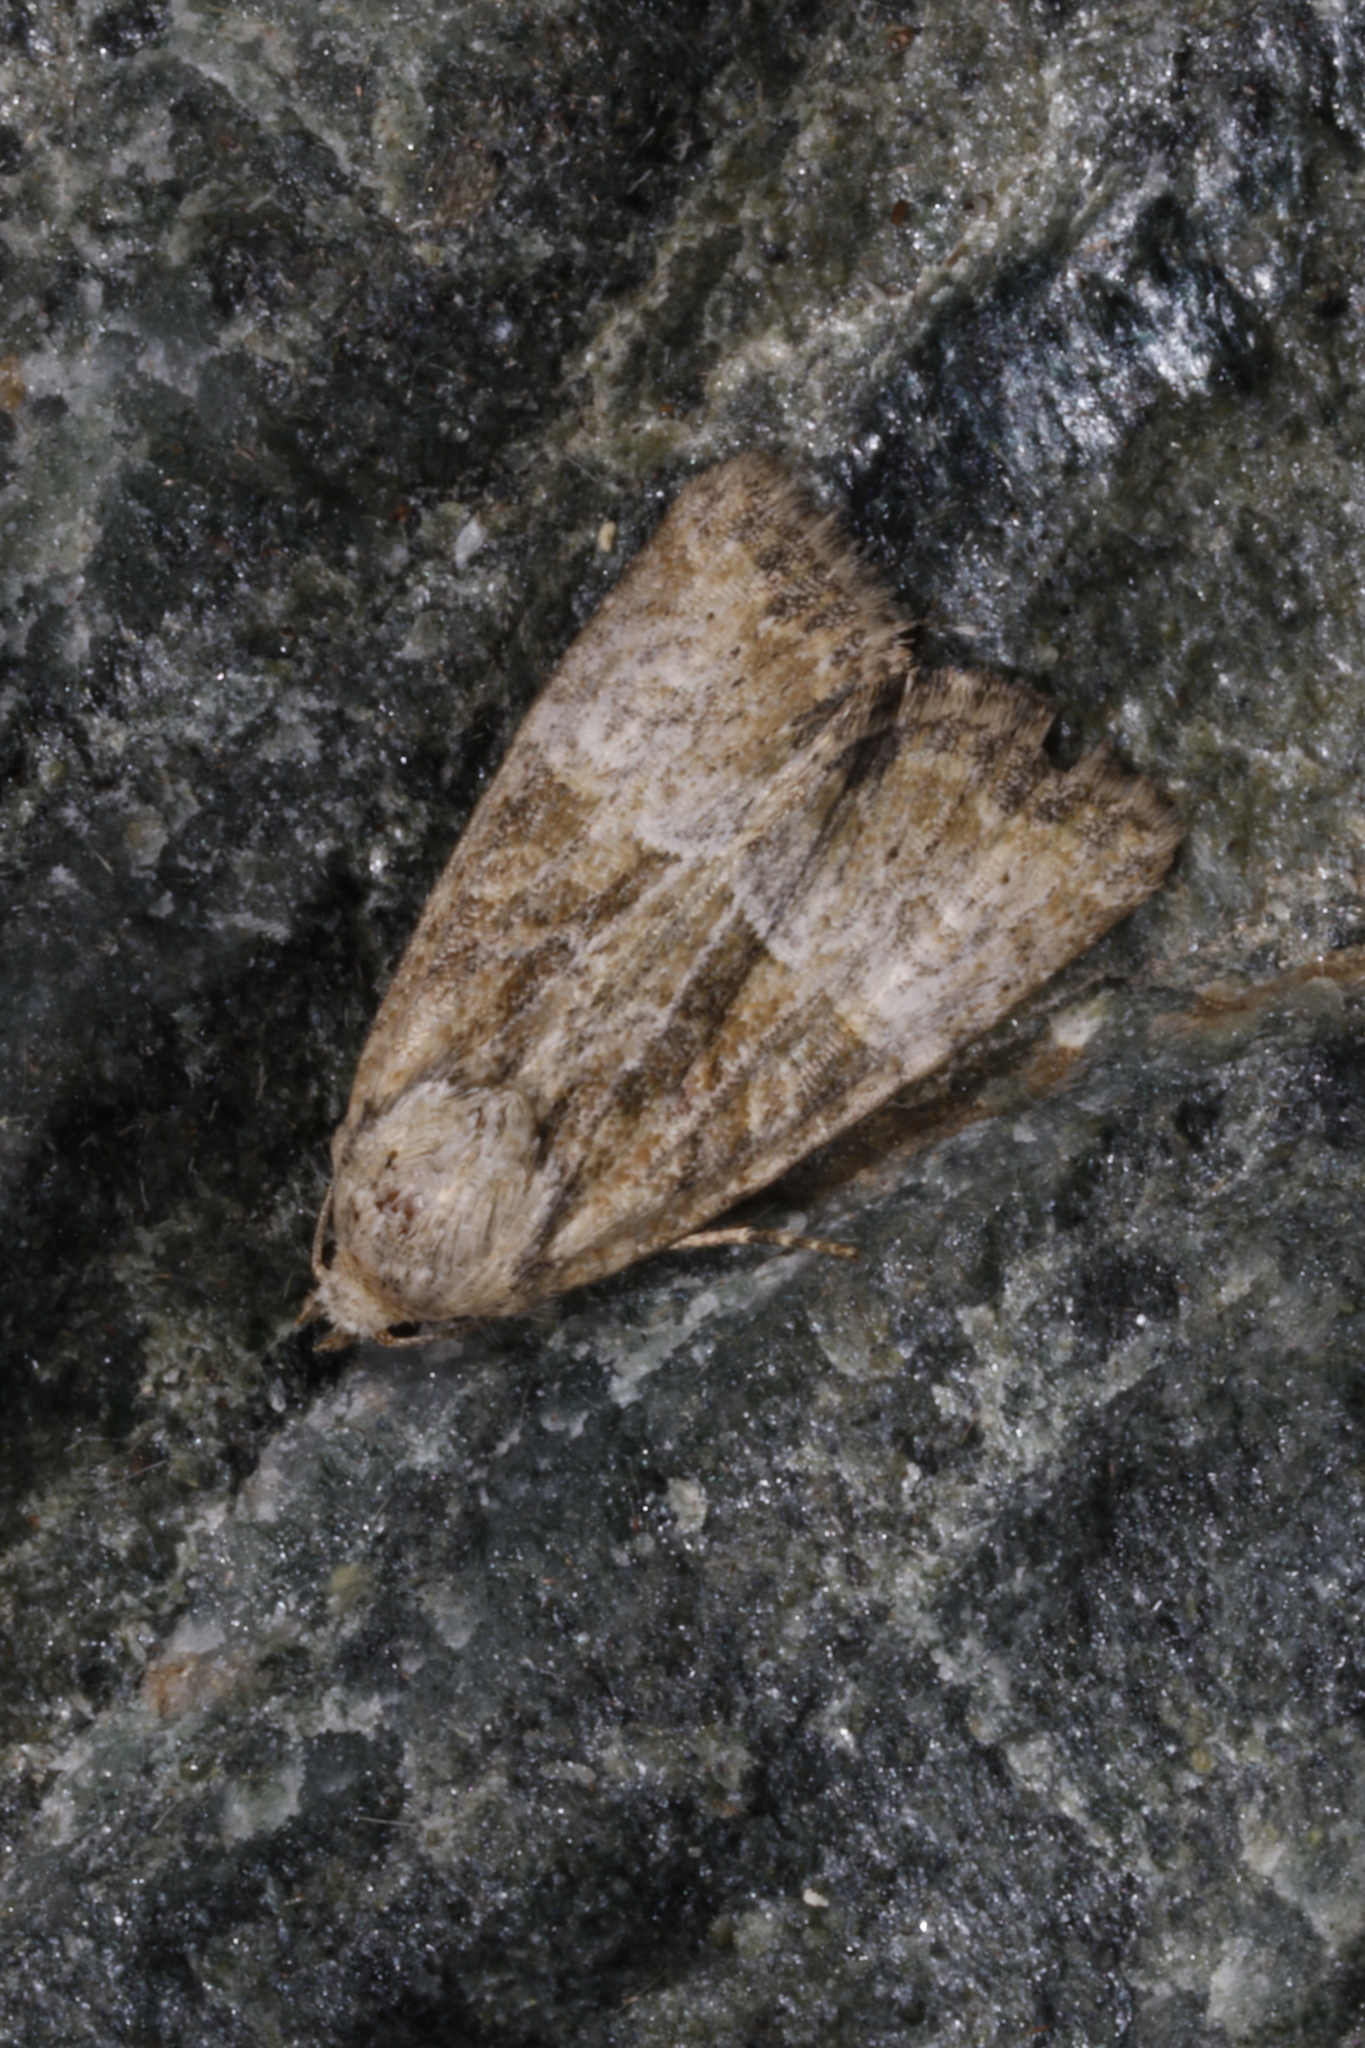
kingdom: Animalia
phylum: Arthropoda
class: Insecta
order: Lepidoptera
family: Noctuidae
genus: Mesoligia
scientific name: Mesoligia furuncula
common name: Cloaked minor
